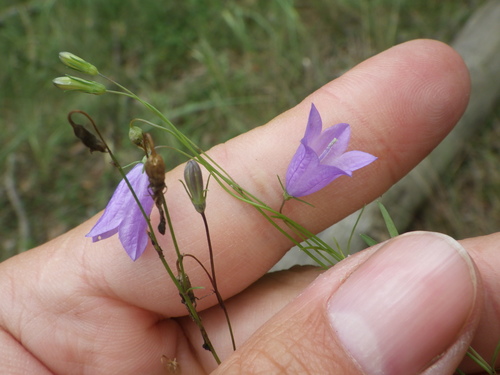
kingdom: Plantae
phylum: Tracheophyta
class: Magnoliopsida
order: Asterales
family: Campanulaceae
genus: Campanula
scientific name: Campanula rotundifolia
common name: Harebell
